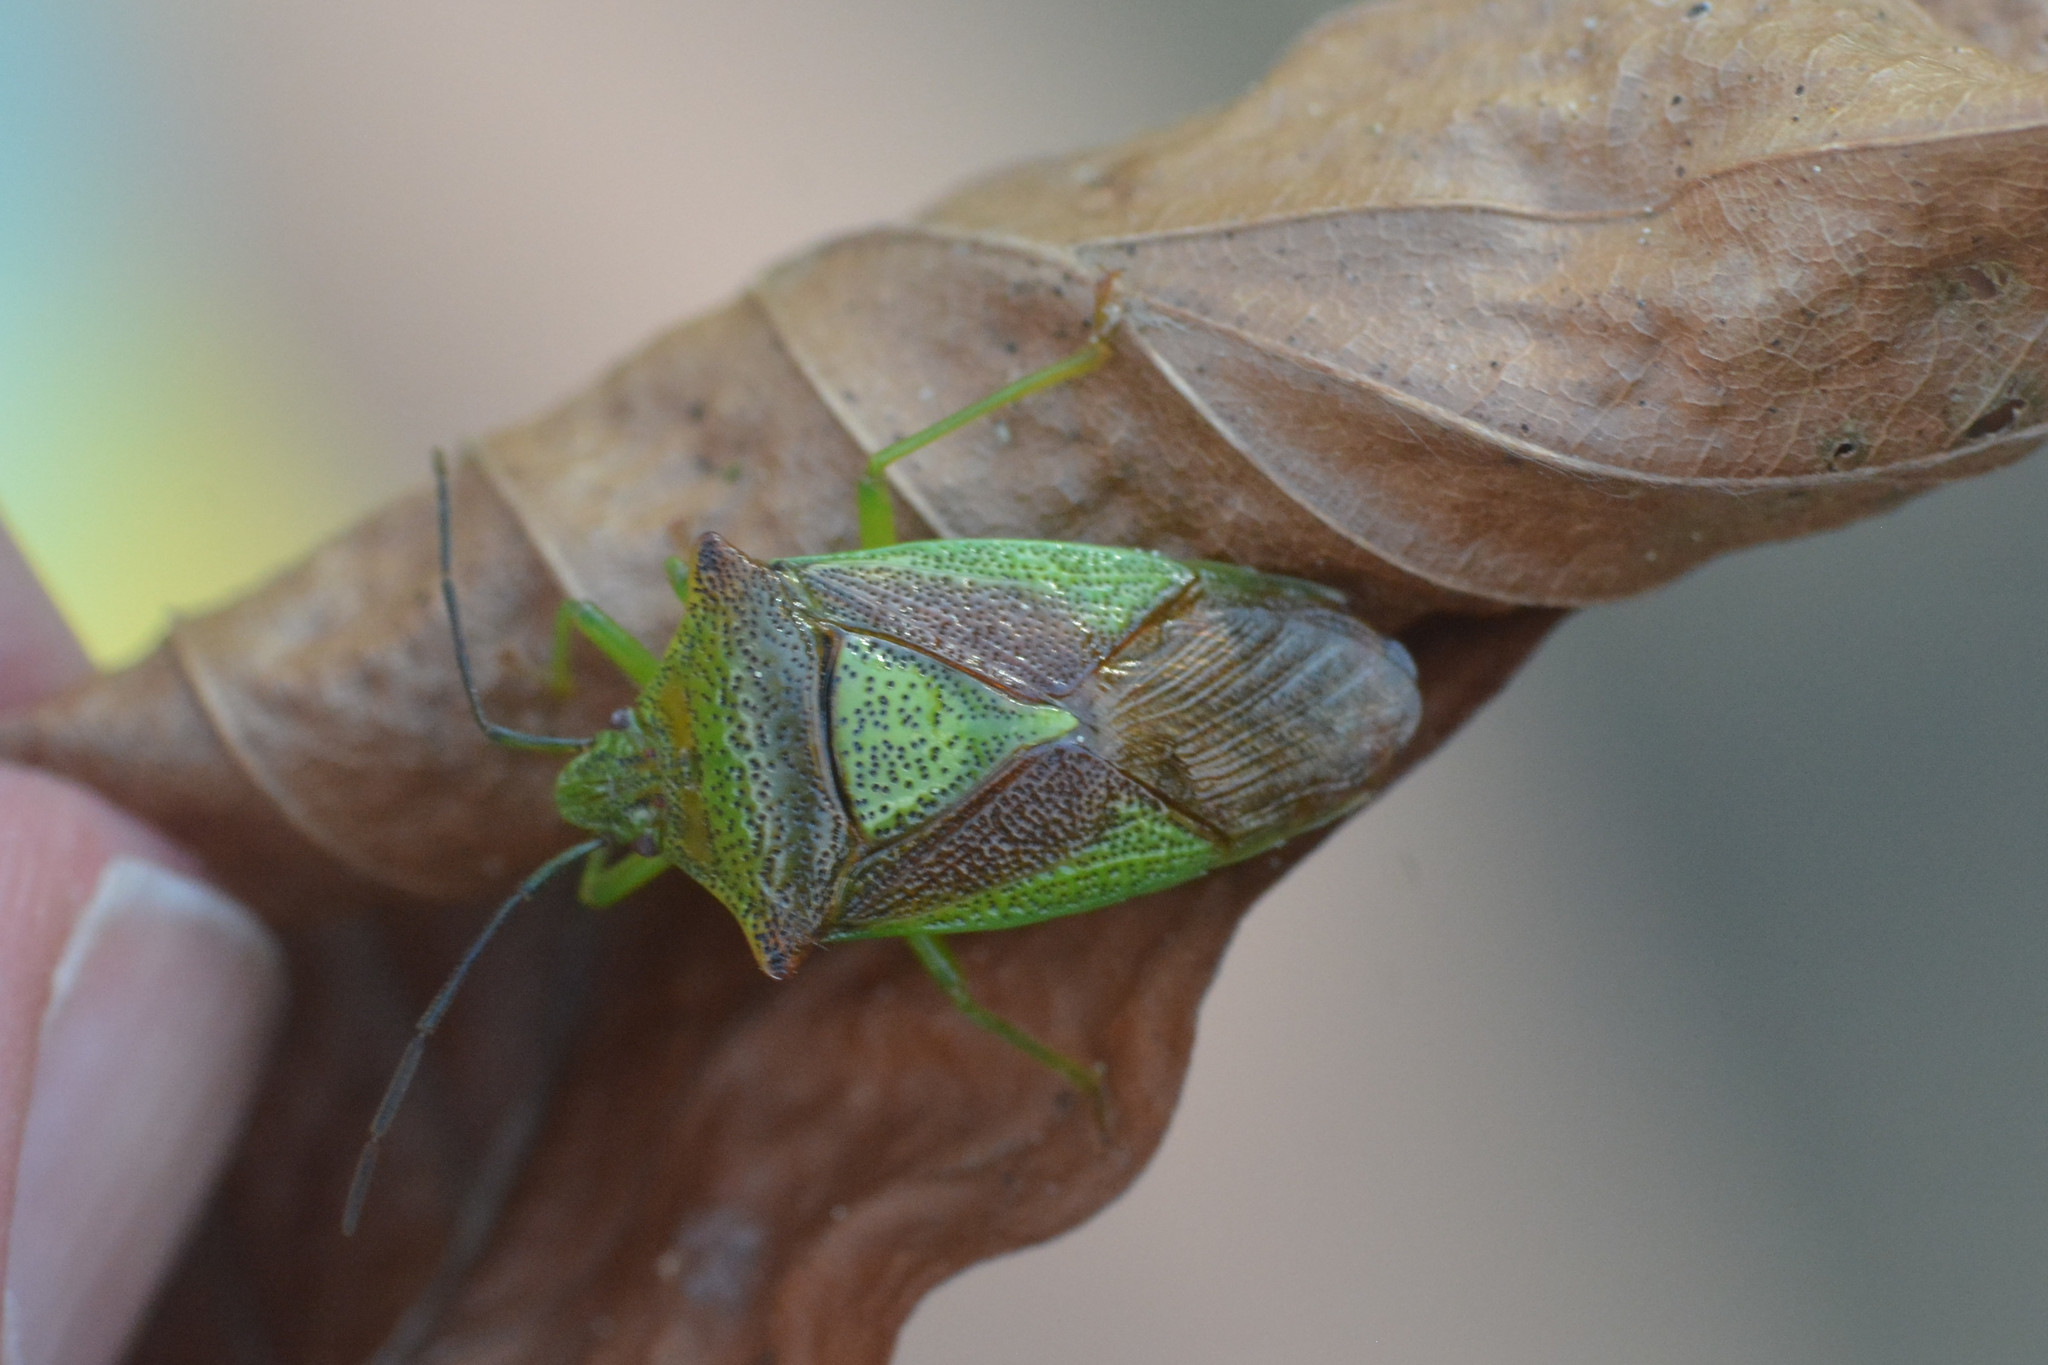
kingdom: Animalia
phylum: Arthropoda
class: Insecta
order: Hemiptera
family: Acanthosomatidae
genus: Acanthosoma
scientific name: Acanthosoma haemorrhoidale
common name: Hawthorn shieldbug
